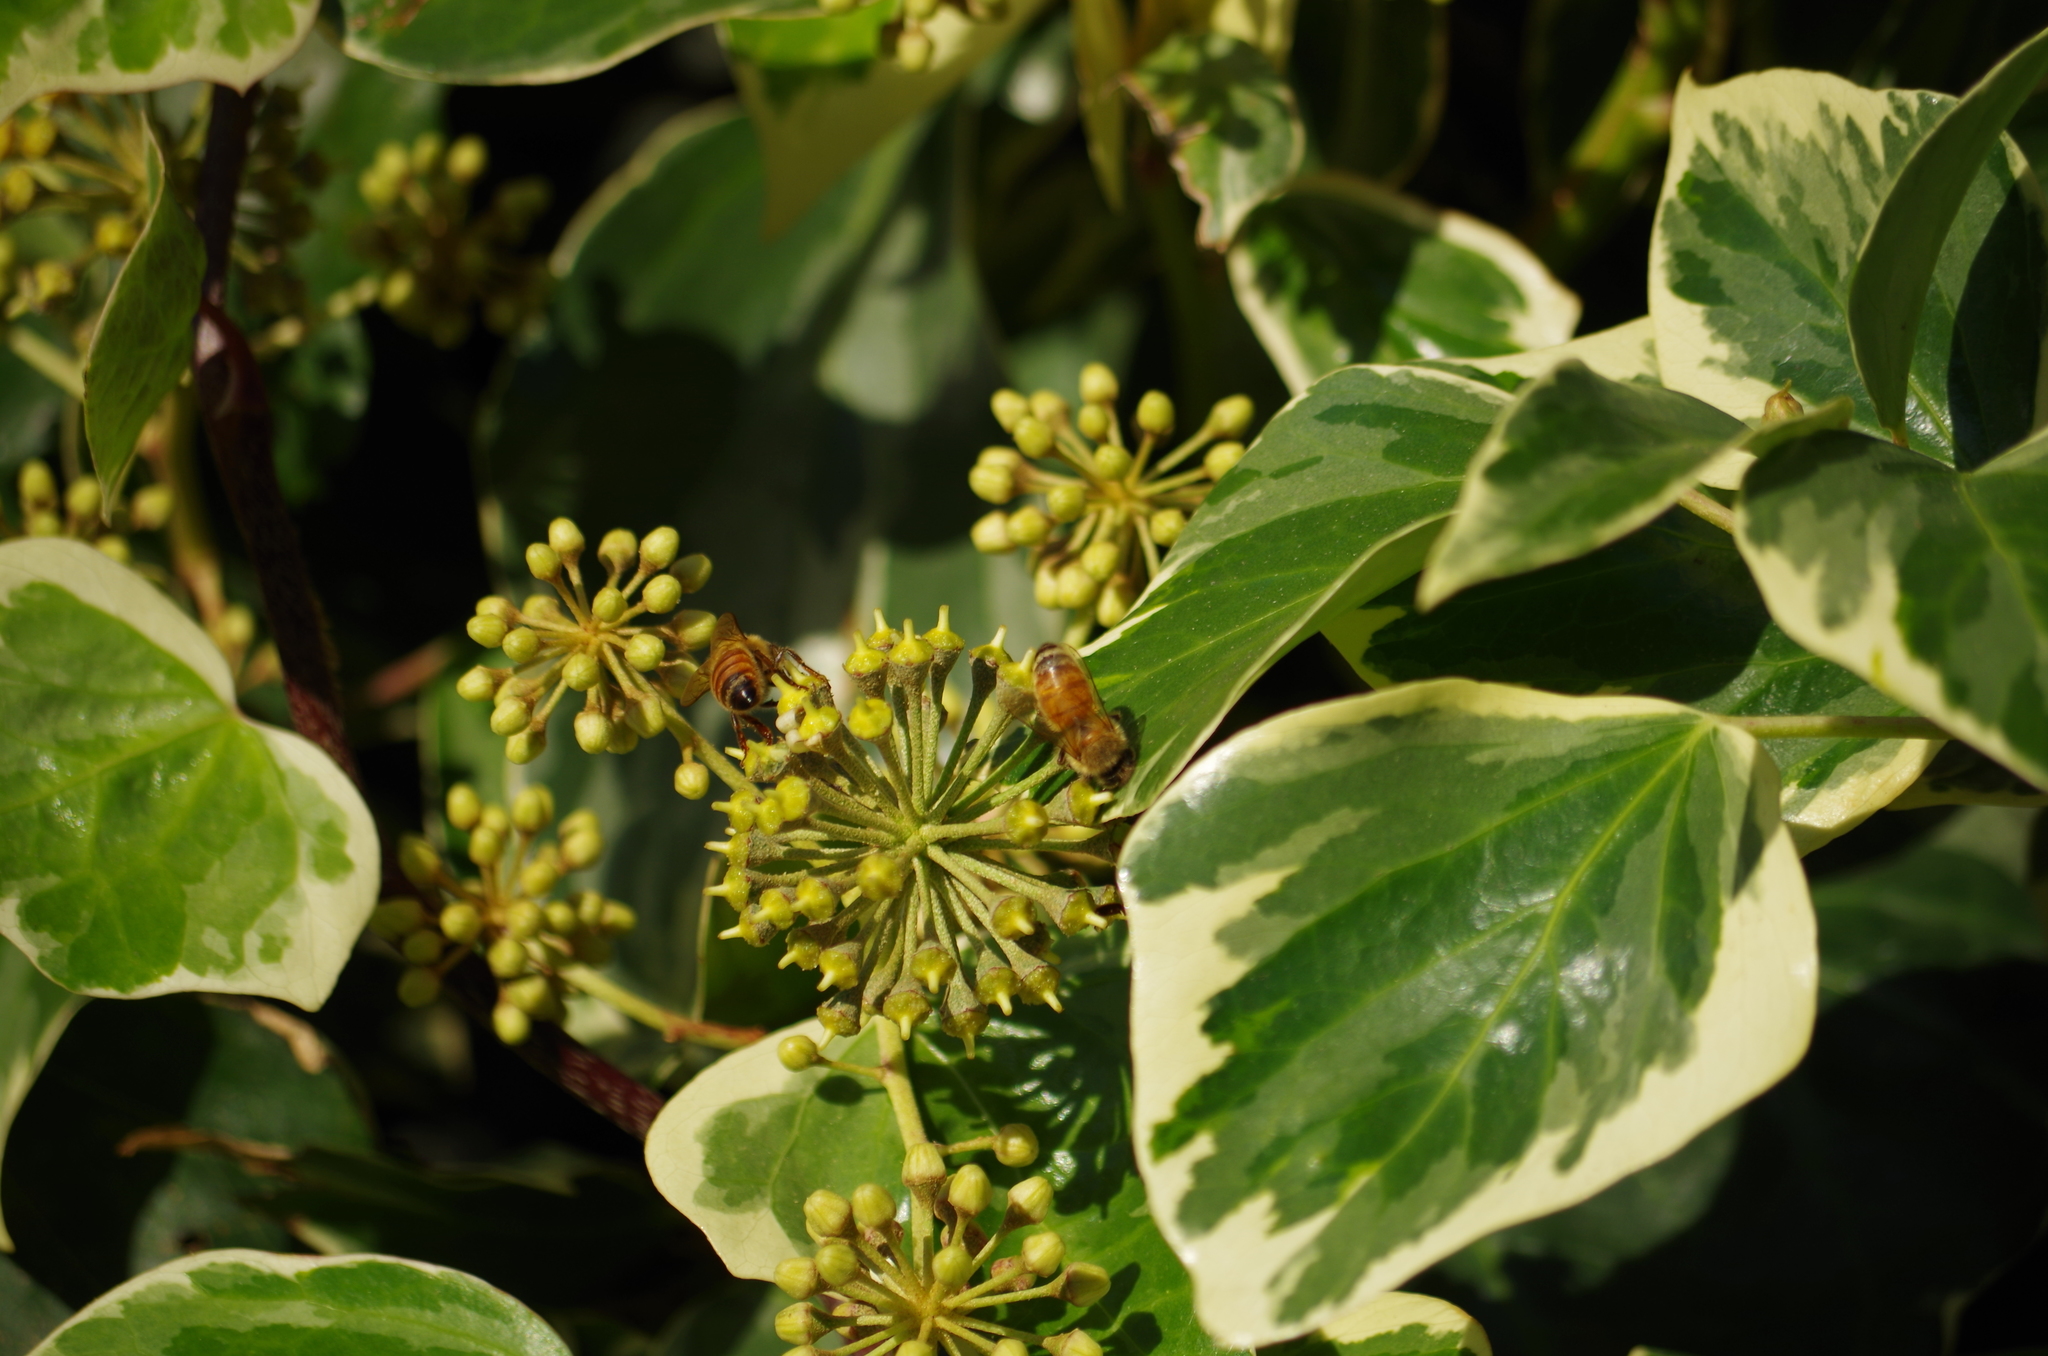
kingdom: Animalia
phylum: Arthropoda
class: Insecta
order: Hymenoptera
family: Apidae
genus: Apis
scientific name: Apis mellifera
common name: Honey bee
